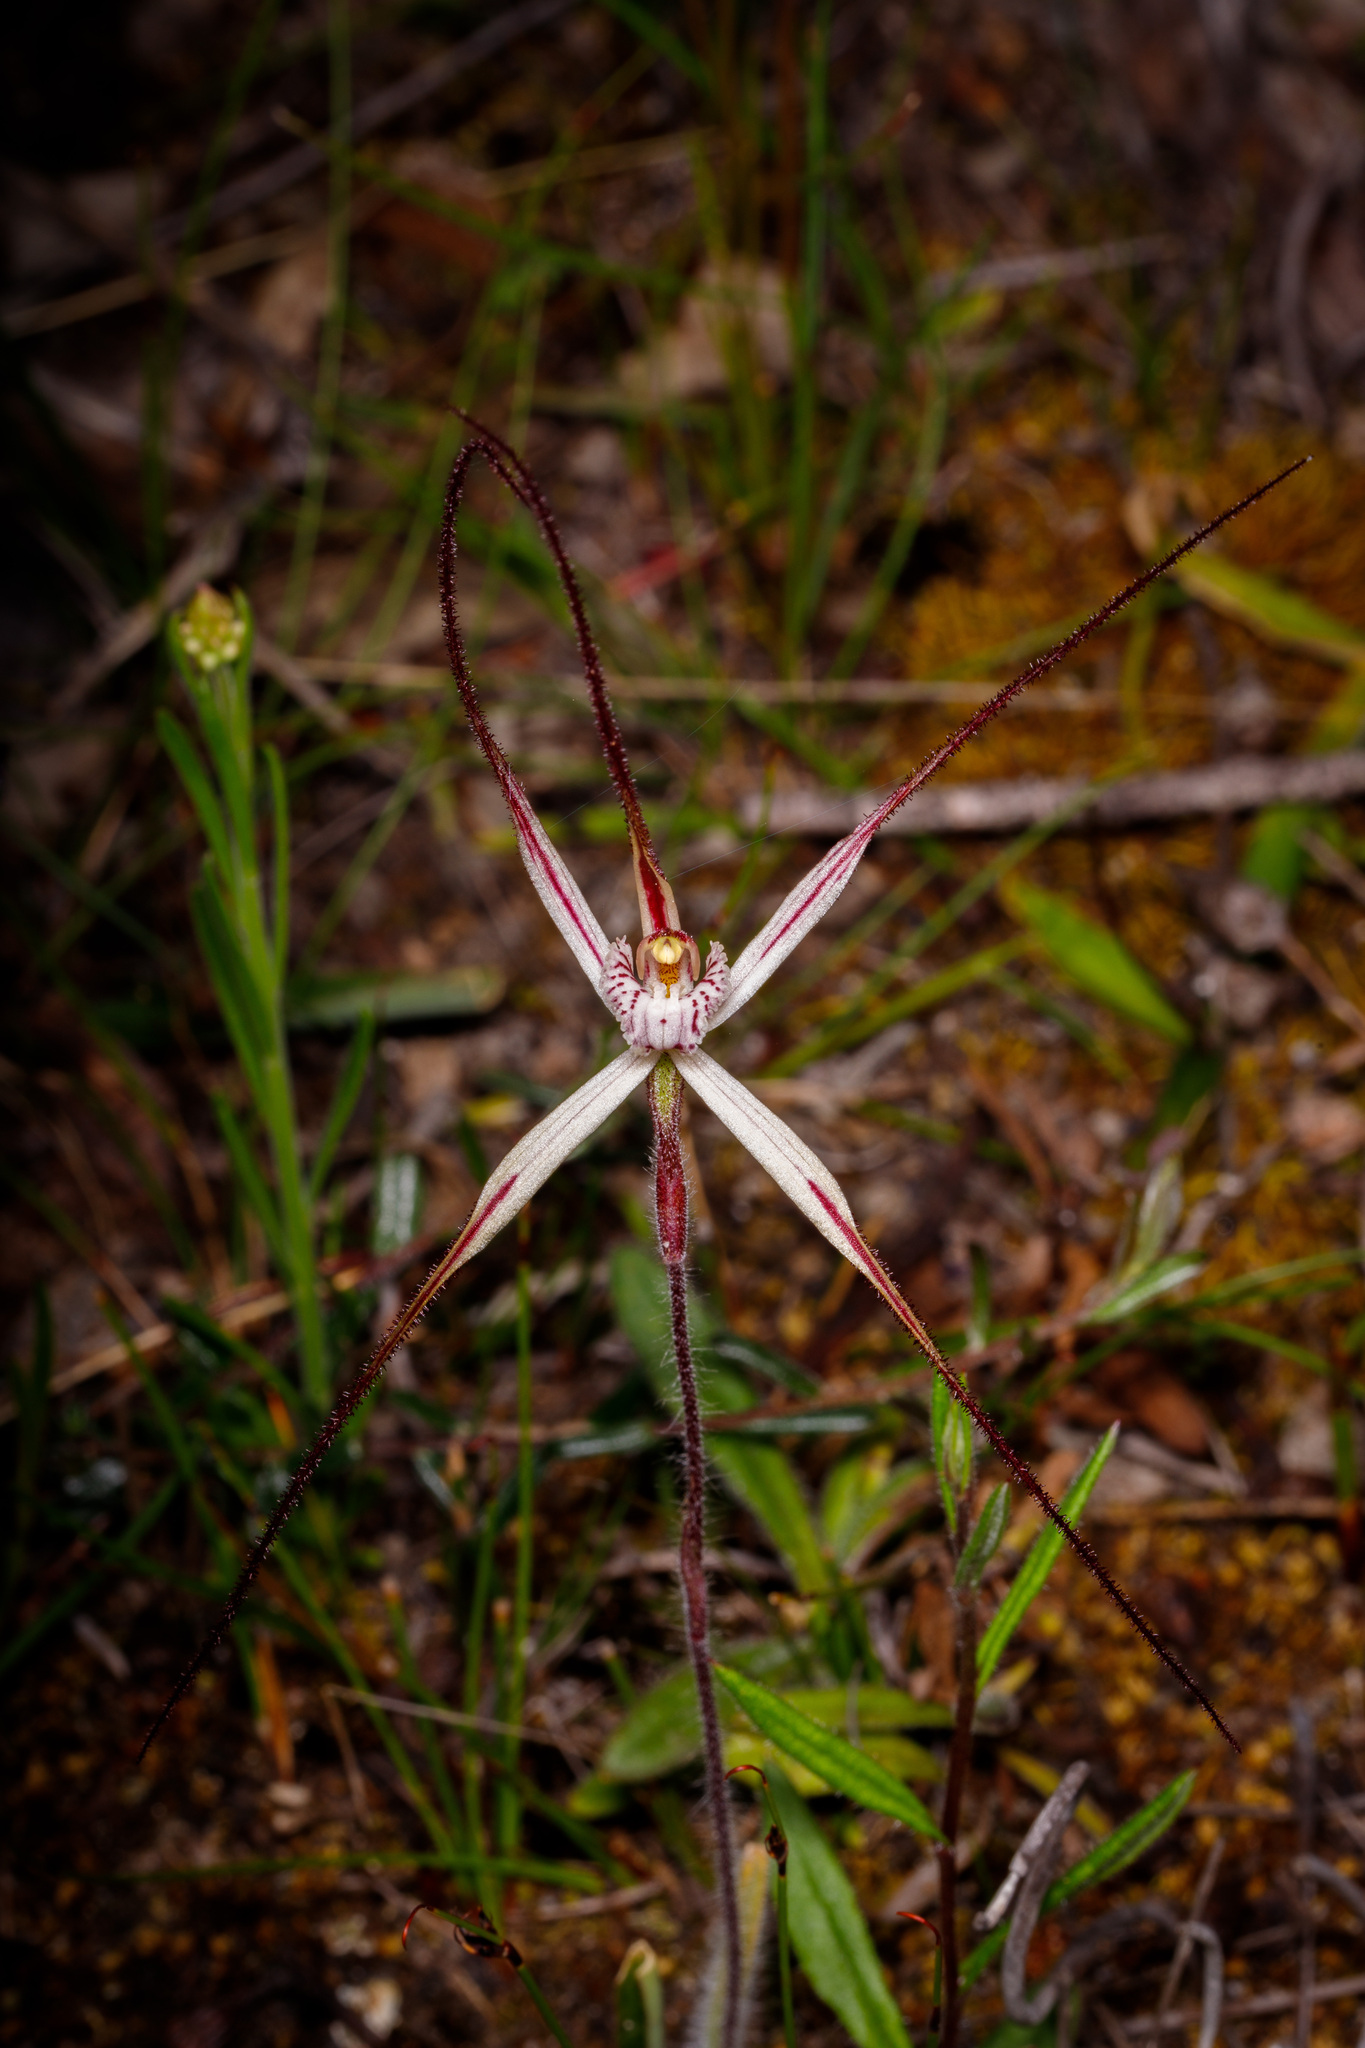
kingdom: Plantae
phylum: Tracheophyta
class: Liliopsida
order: Asparagales
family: Orchidaceae
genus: Caladenia
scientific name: Caladenia polychroma
